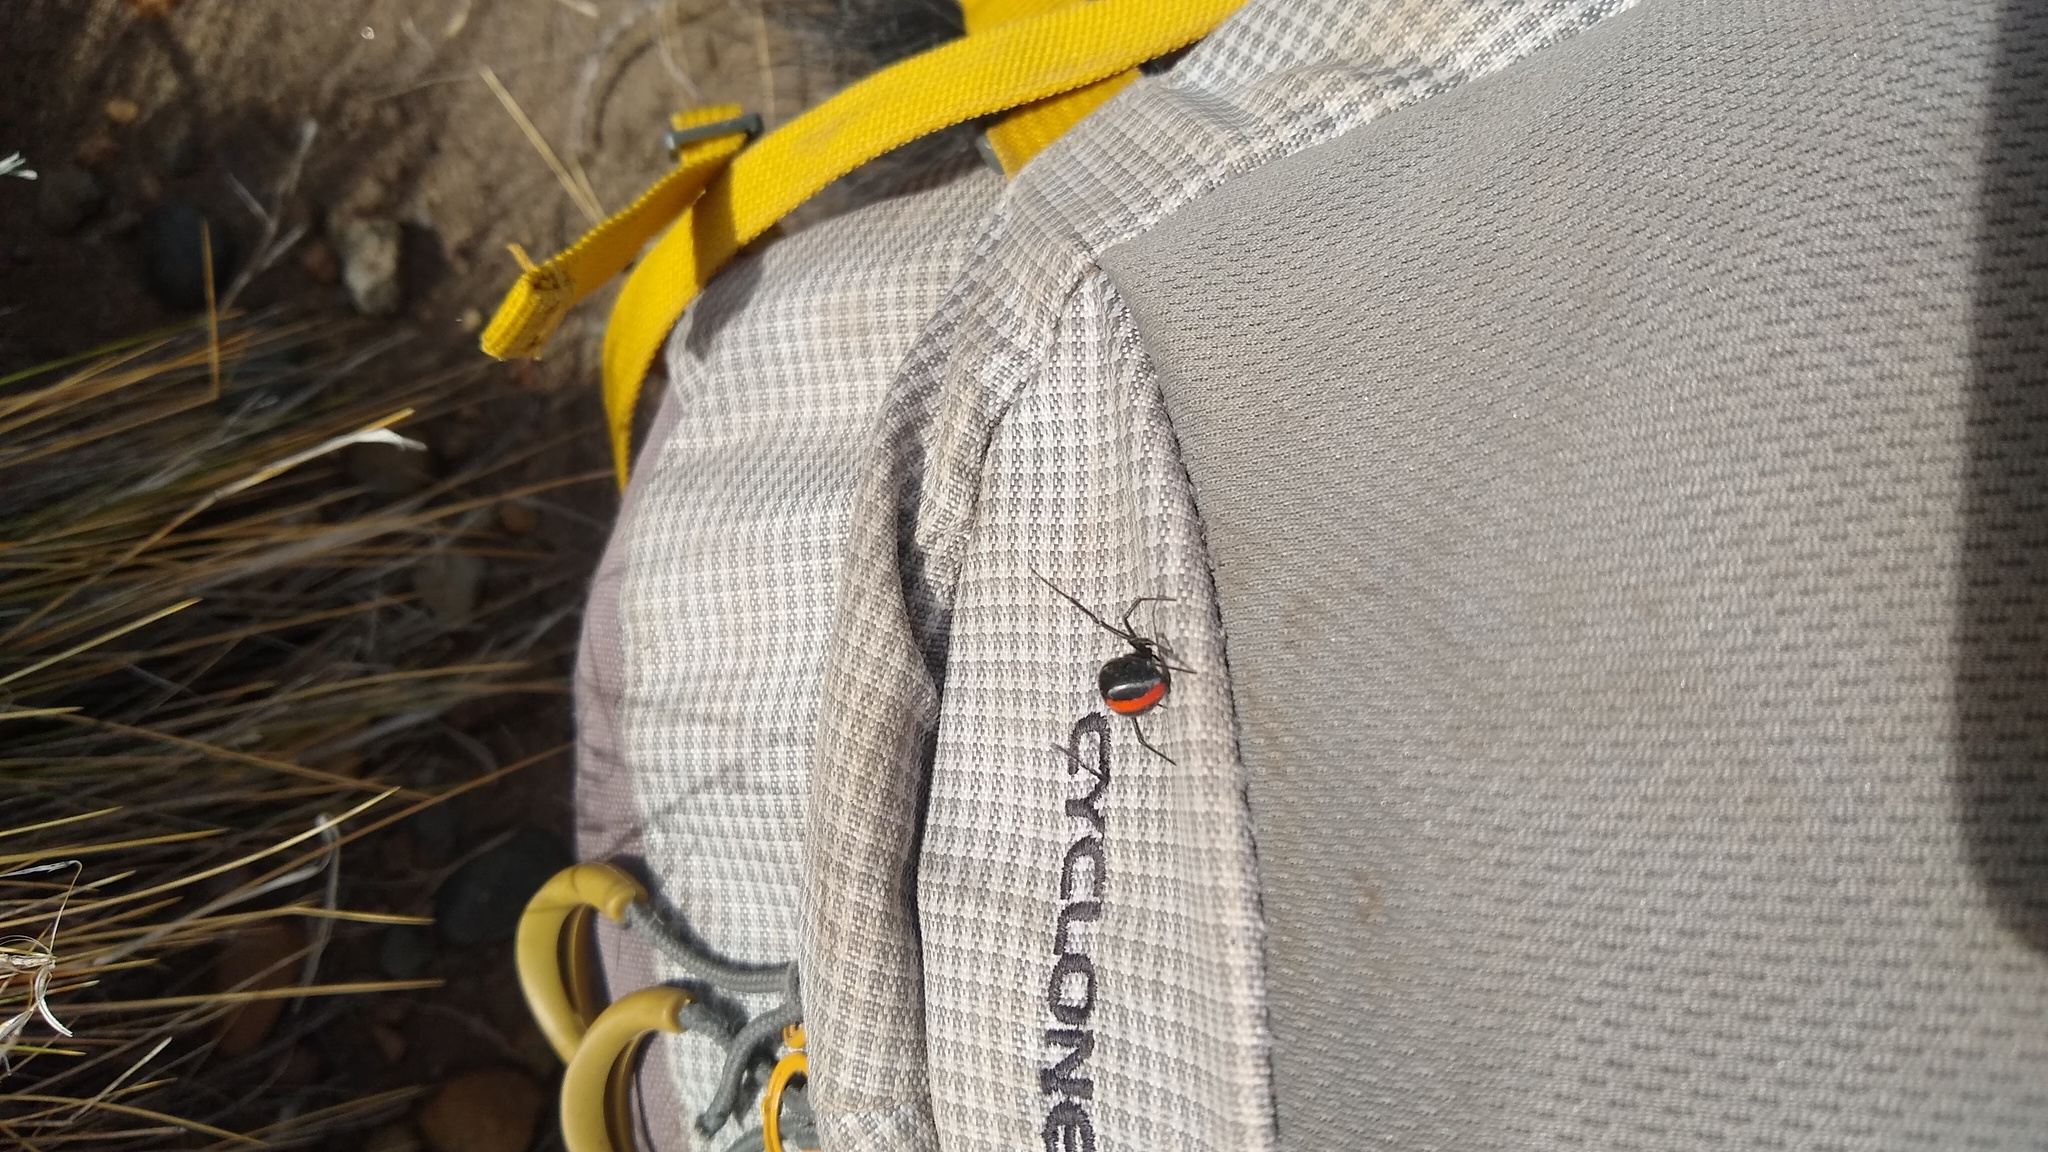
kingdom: Animalia
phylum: Arthropoda
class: Arachnida
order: Araneae
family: Theridiidae
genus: Latrodectus
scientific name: Latrodectus mirabilis
